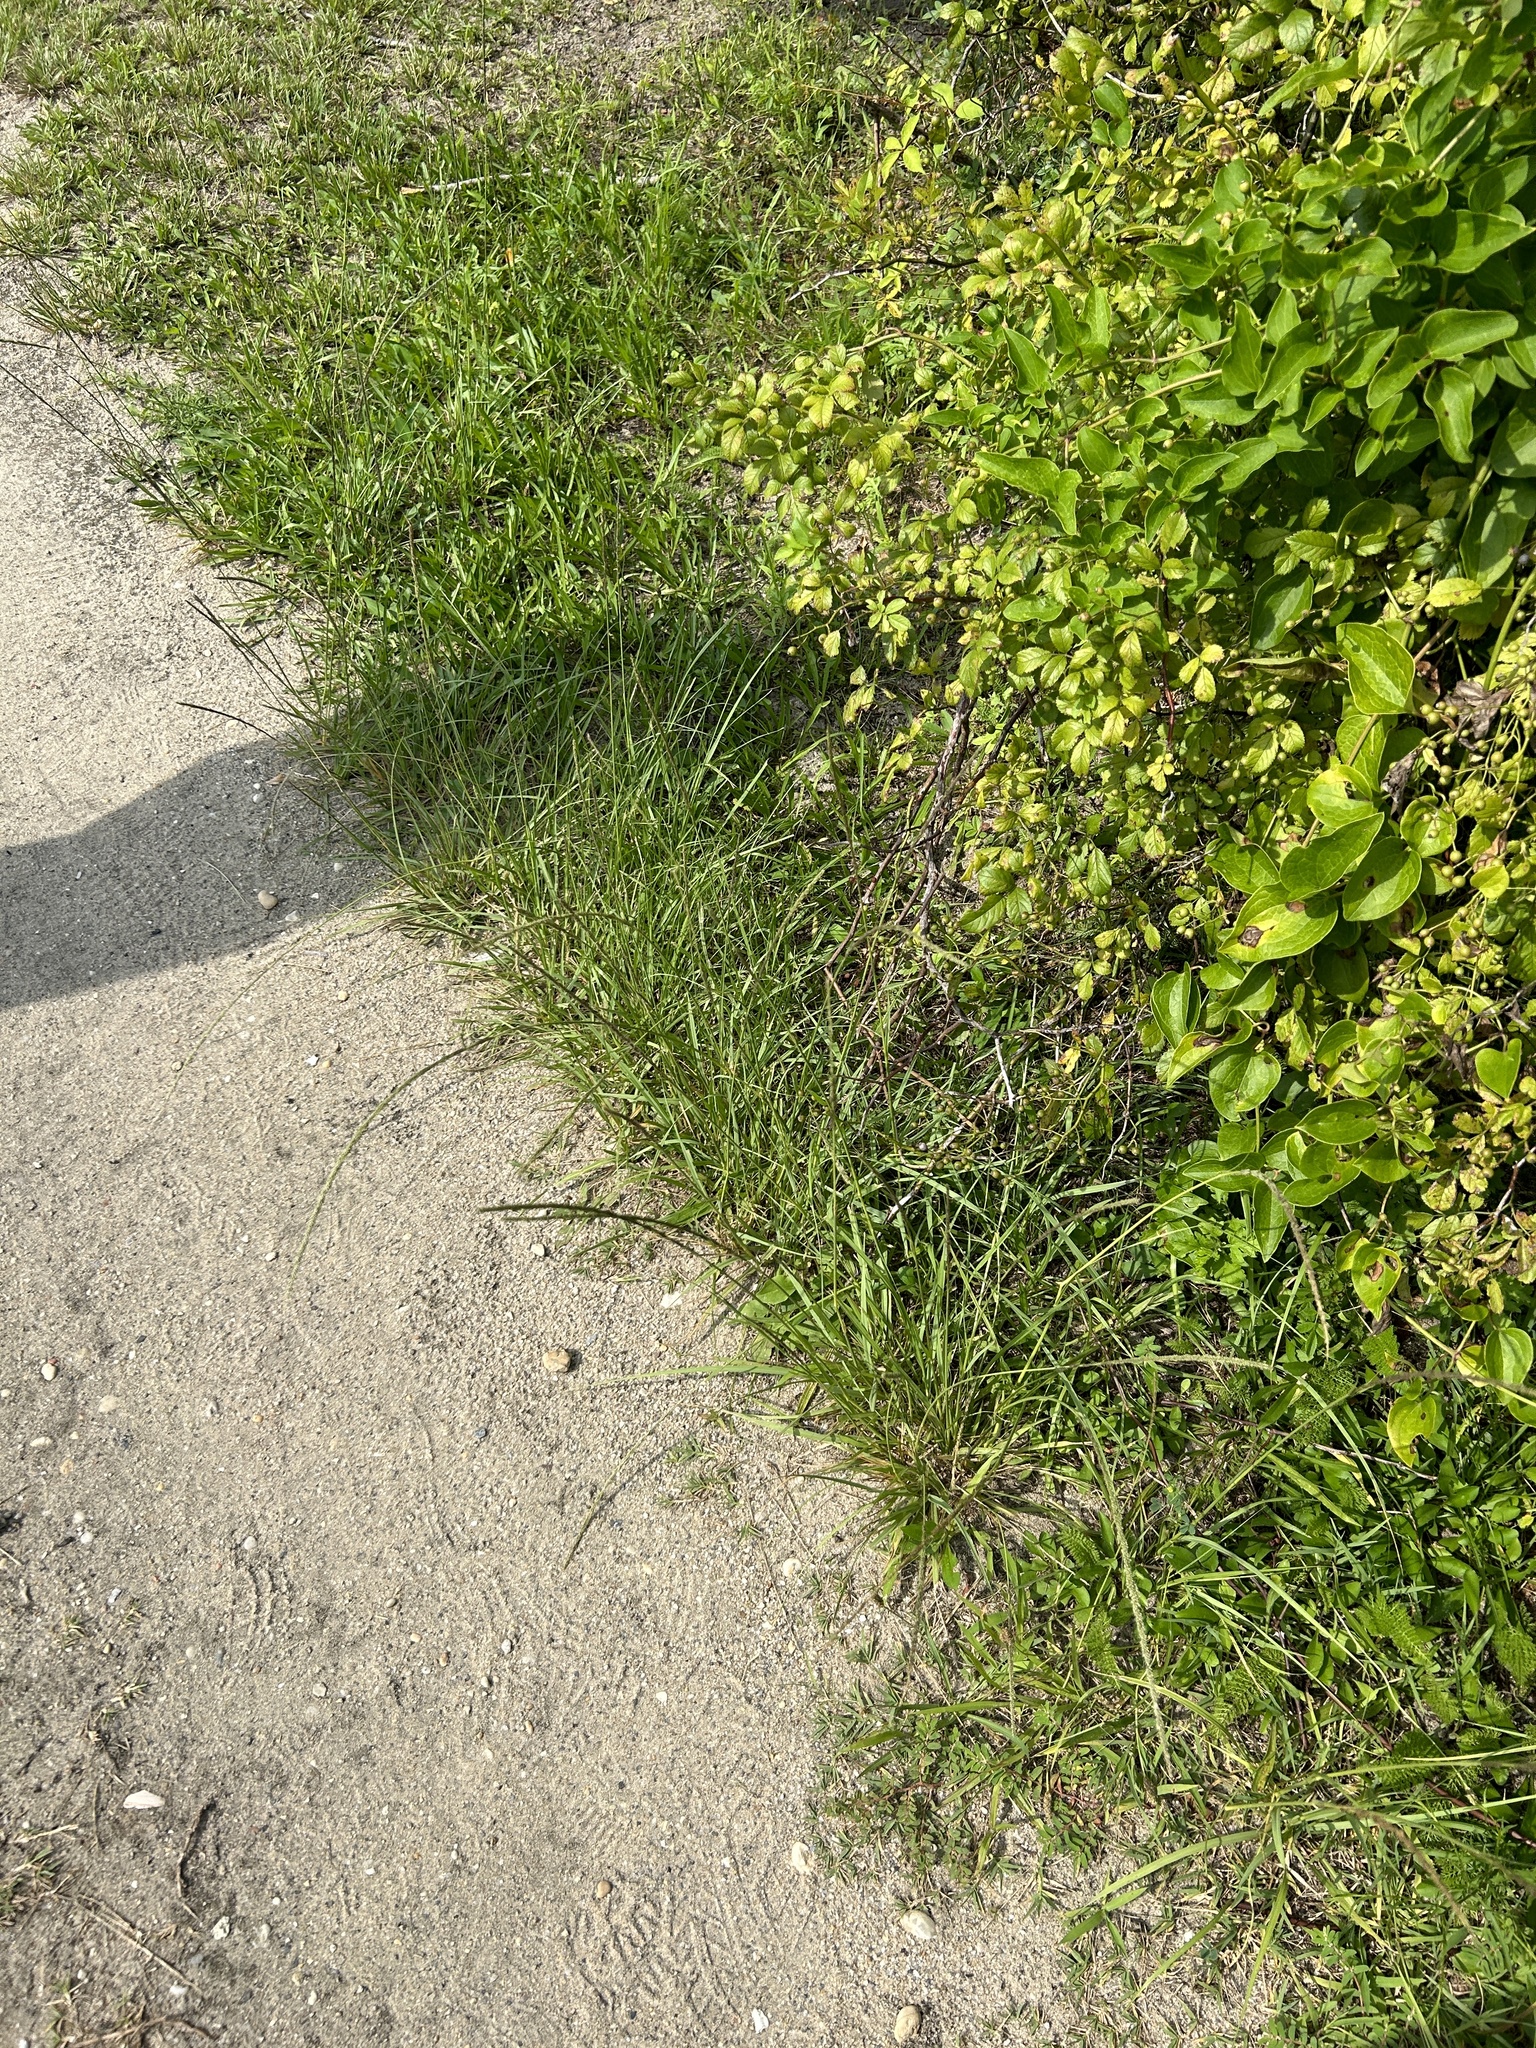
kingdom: Plantae
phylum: Tracheophyta
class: Liliopsida
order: Poales
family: Poaceae
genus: Sporobolus
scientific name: Sporobolus indicus
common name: Smut grass
